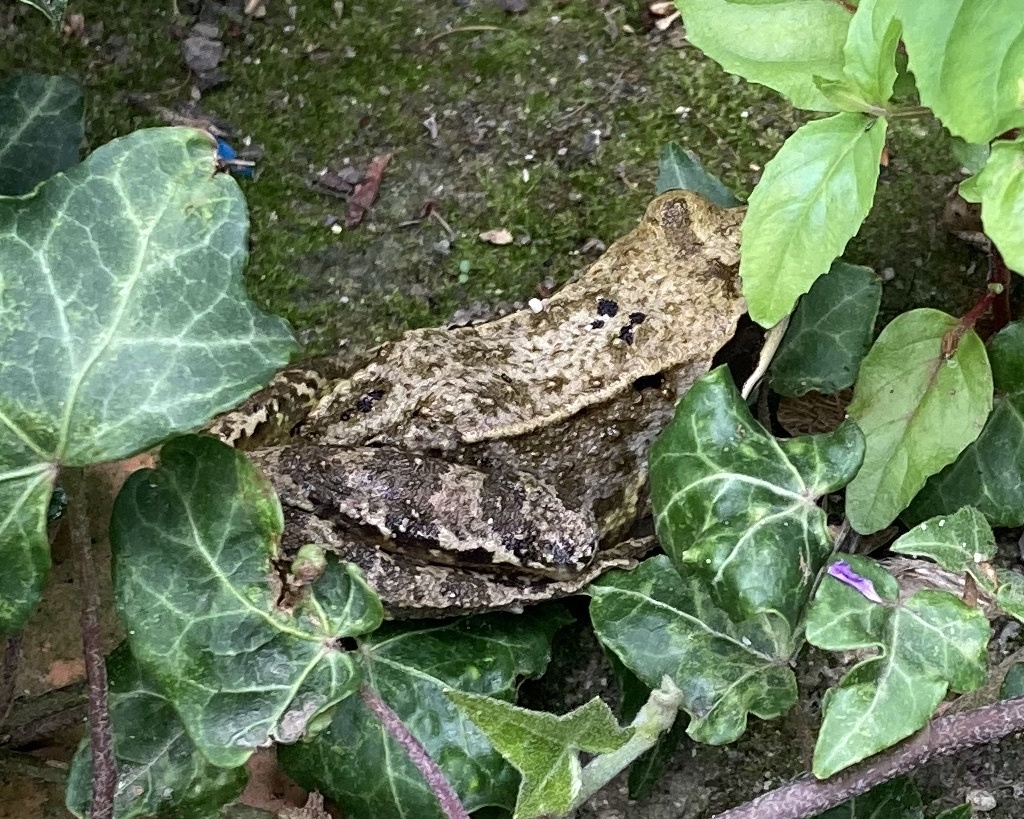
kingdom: Animalia
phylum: Chordata
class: Amphibia
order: Anura
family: Ranidae
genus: Rana
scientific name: Rana temporaria
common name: Common frog
